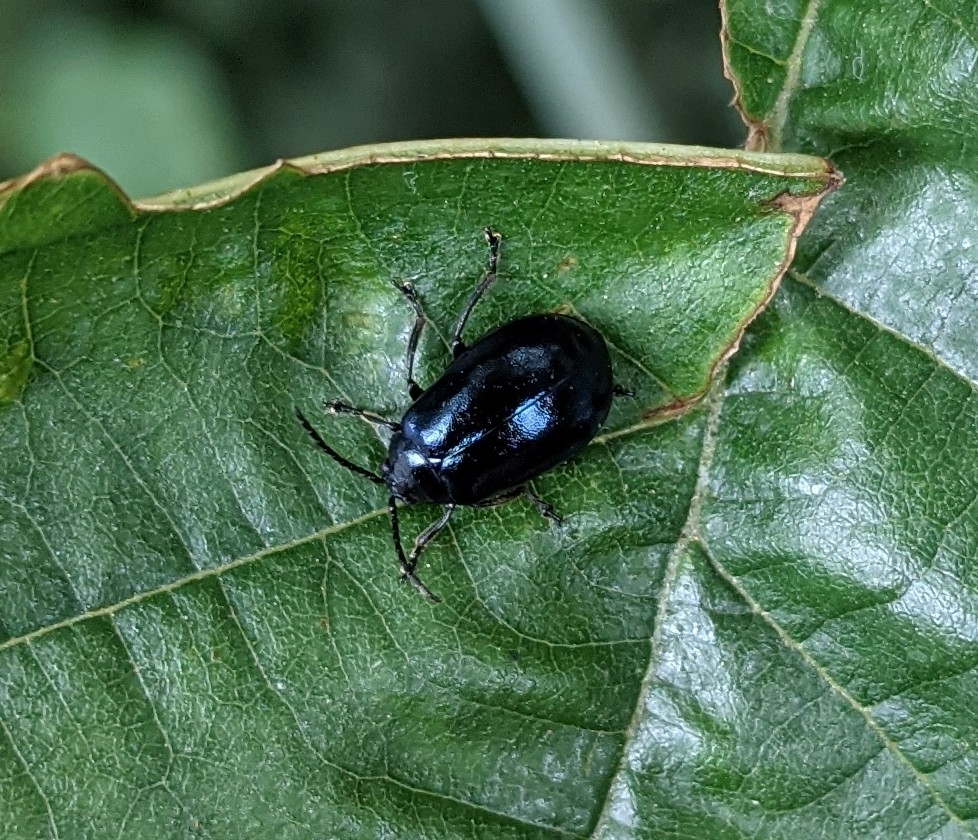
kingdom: Animalia
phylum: Arthropoda
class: Insecta
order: Coleoptera
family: Chrysomelidae
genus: Agelastica
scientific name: Agelastica alni
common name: Alder leaf beetle
